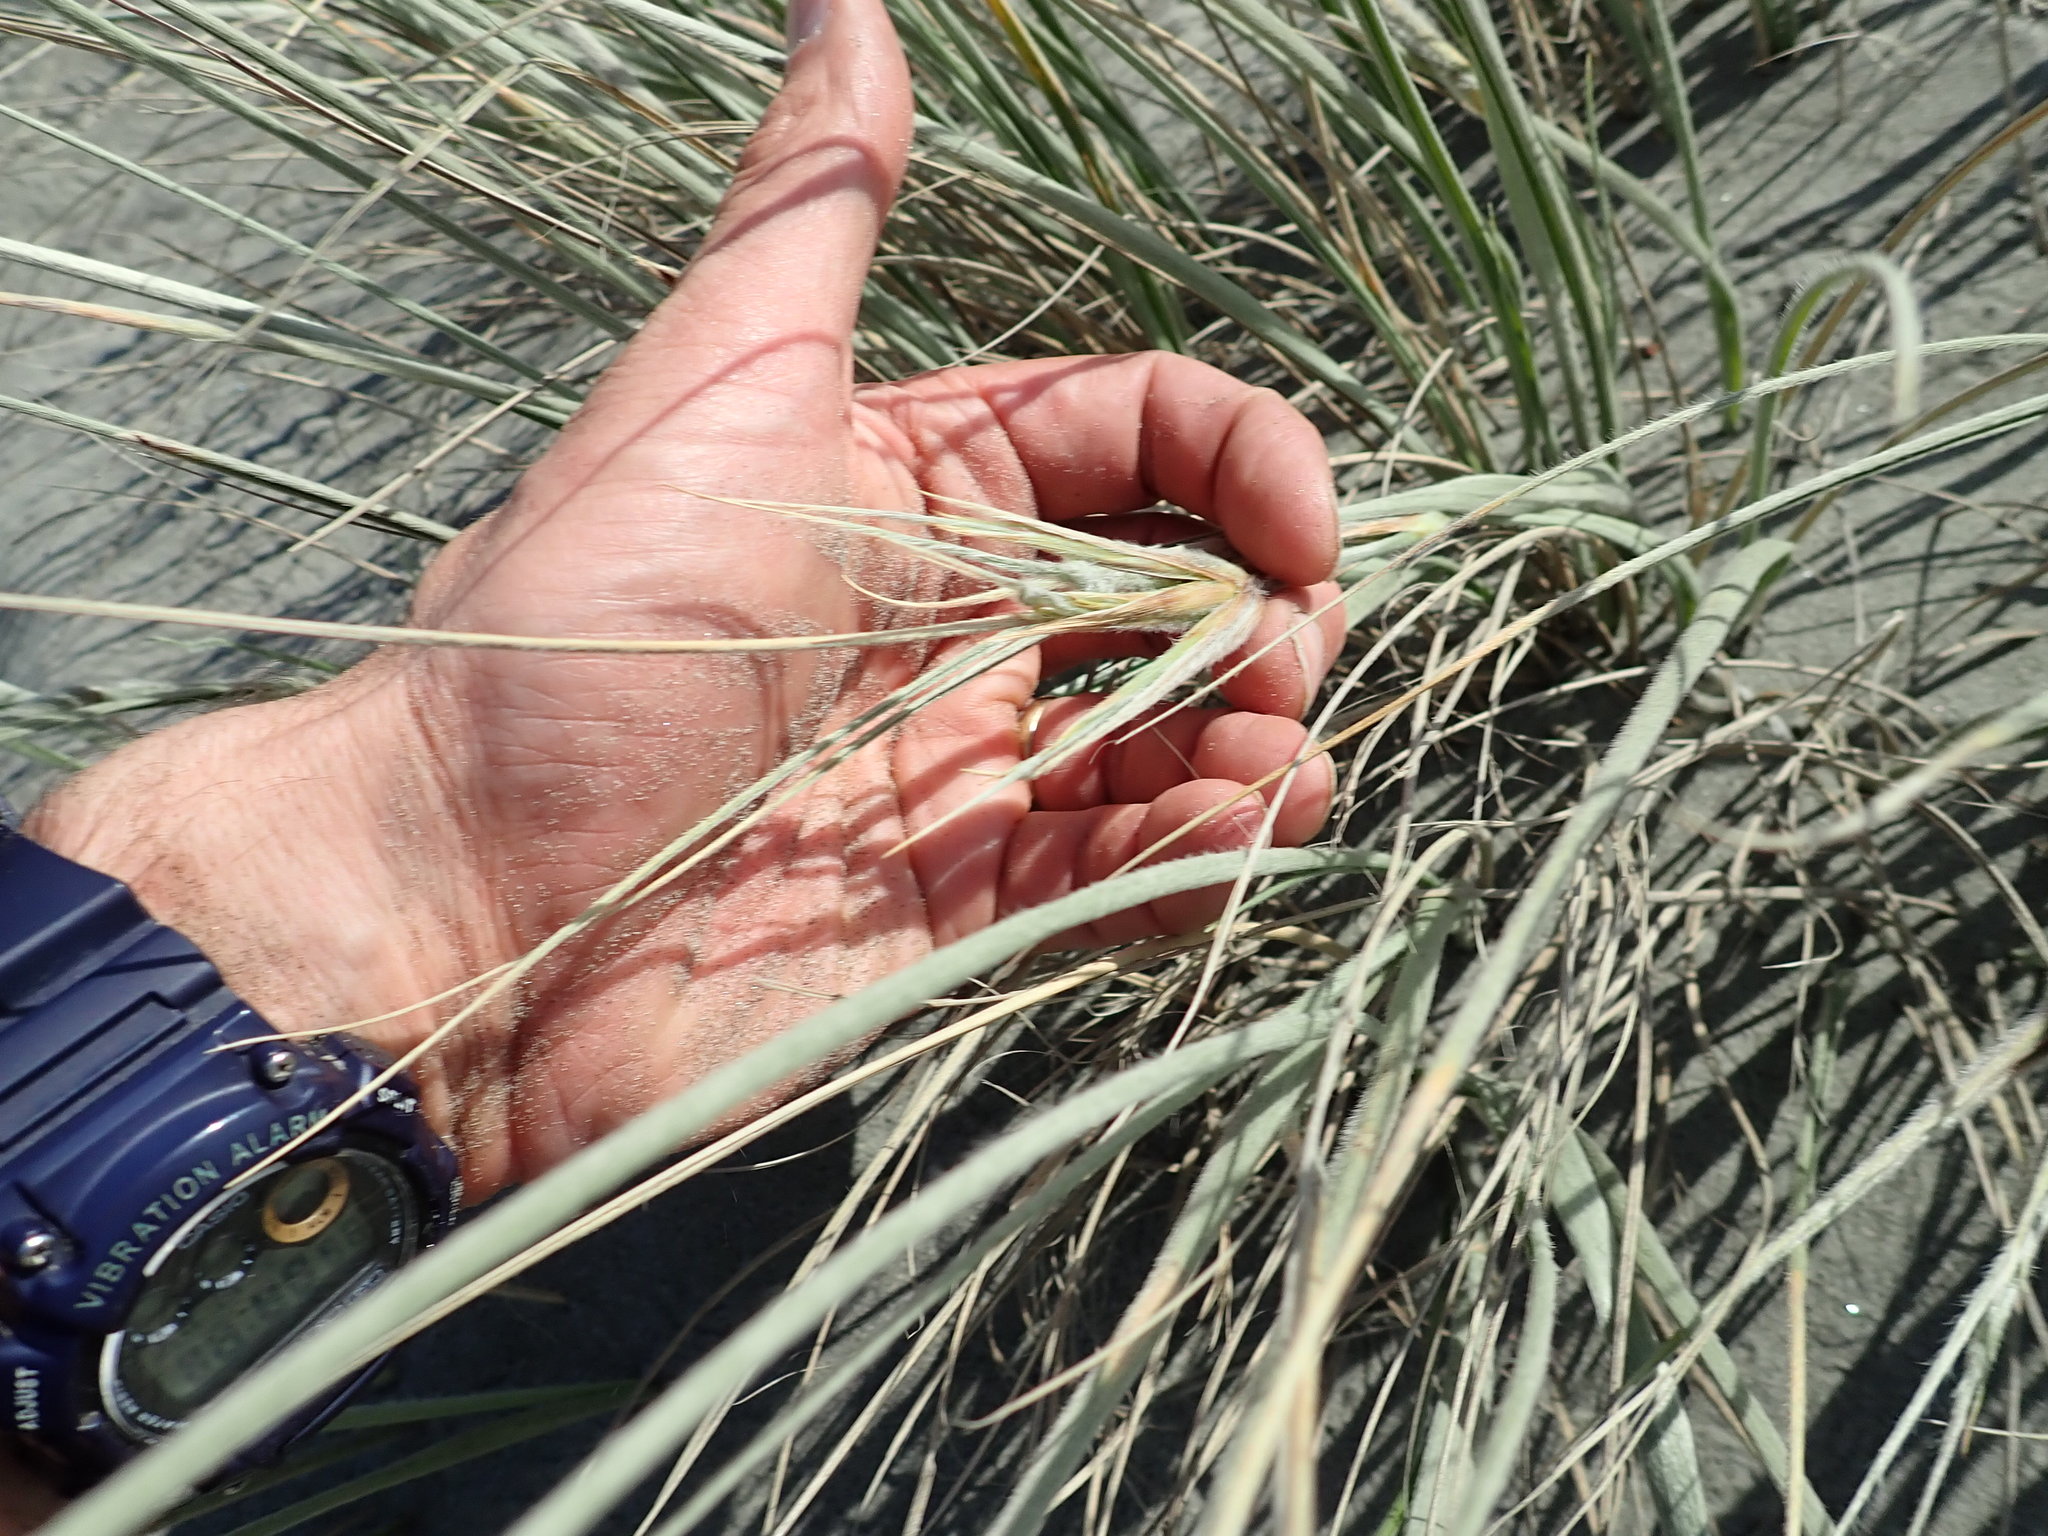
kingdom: Plantae
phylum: Tracheophyta
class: Liliopsida
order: Poales
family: Poaceae
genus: Spinifex
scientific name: Spinifex sericeus
